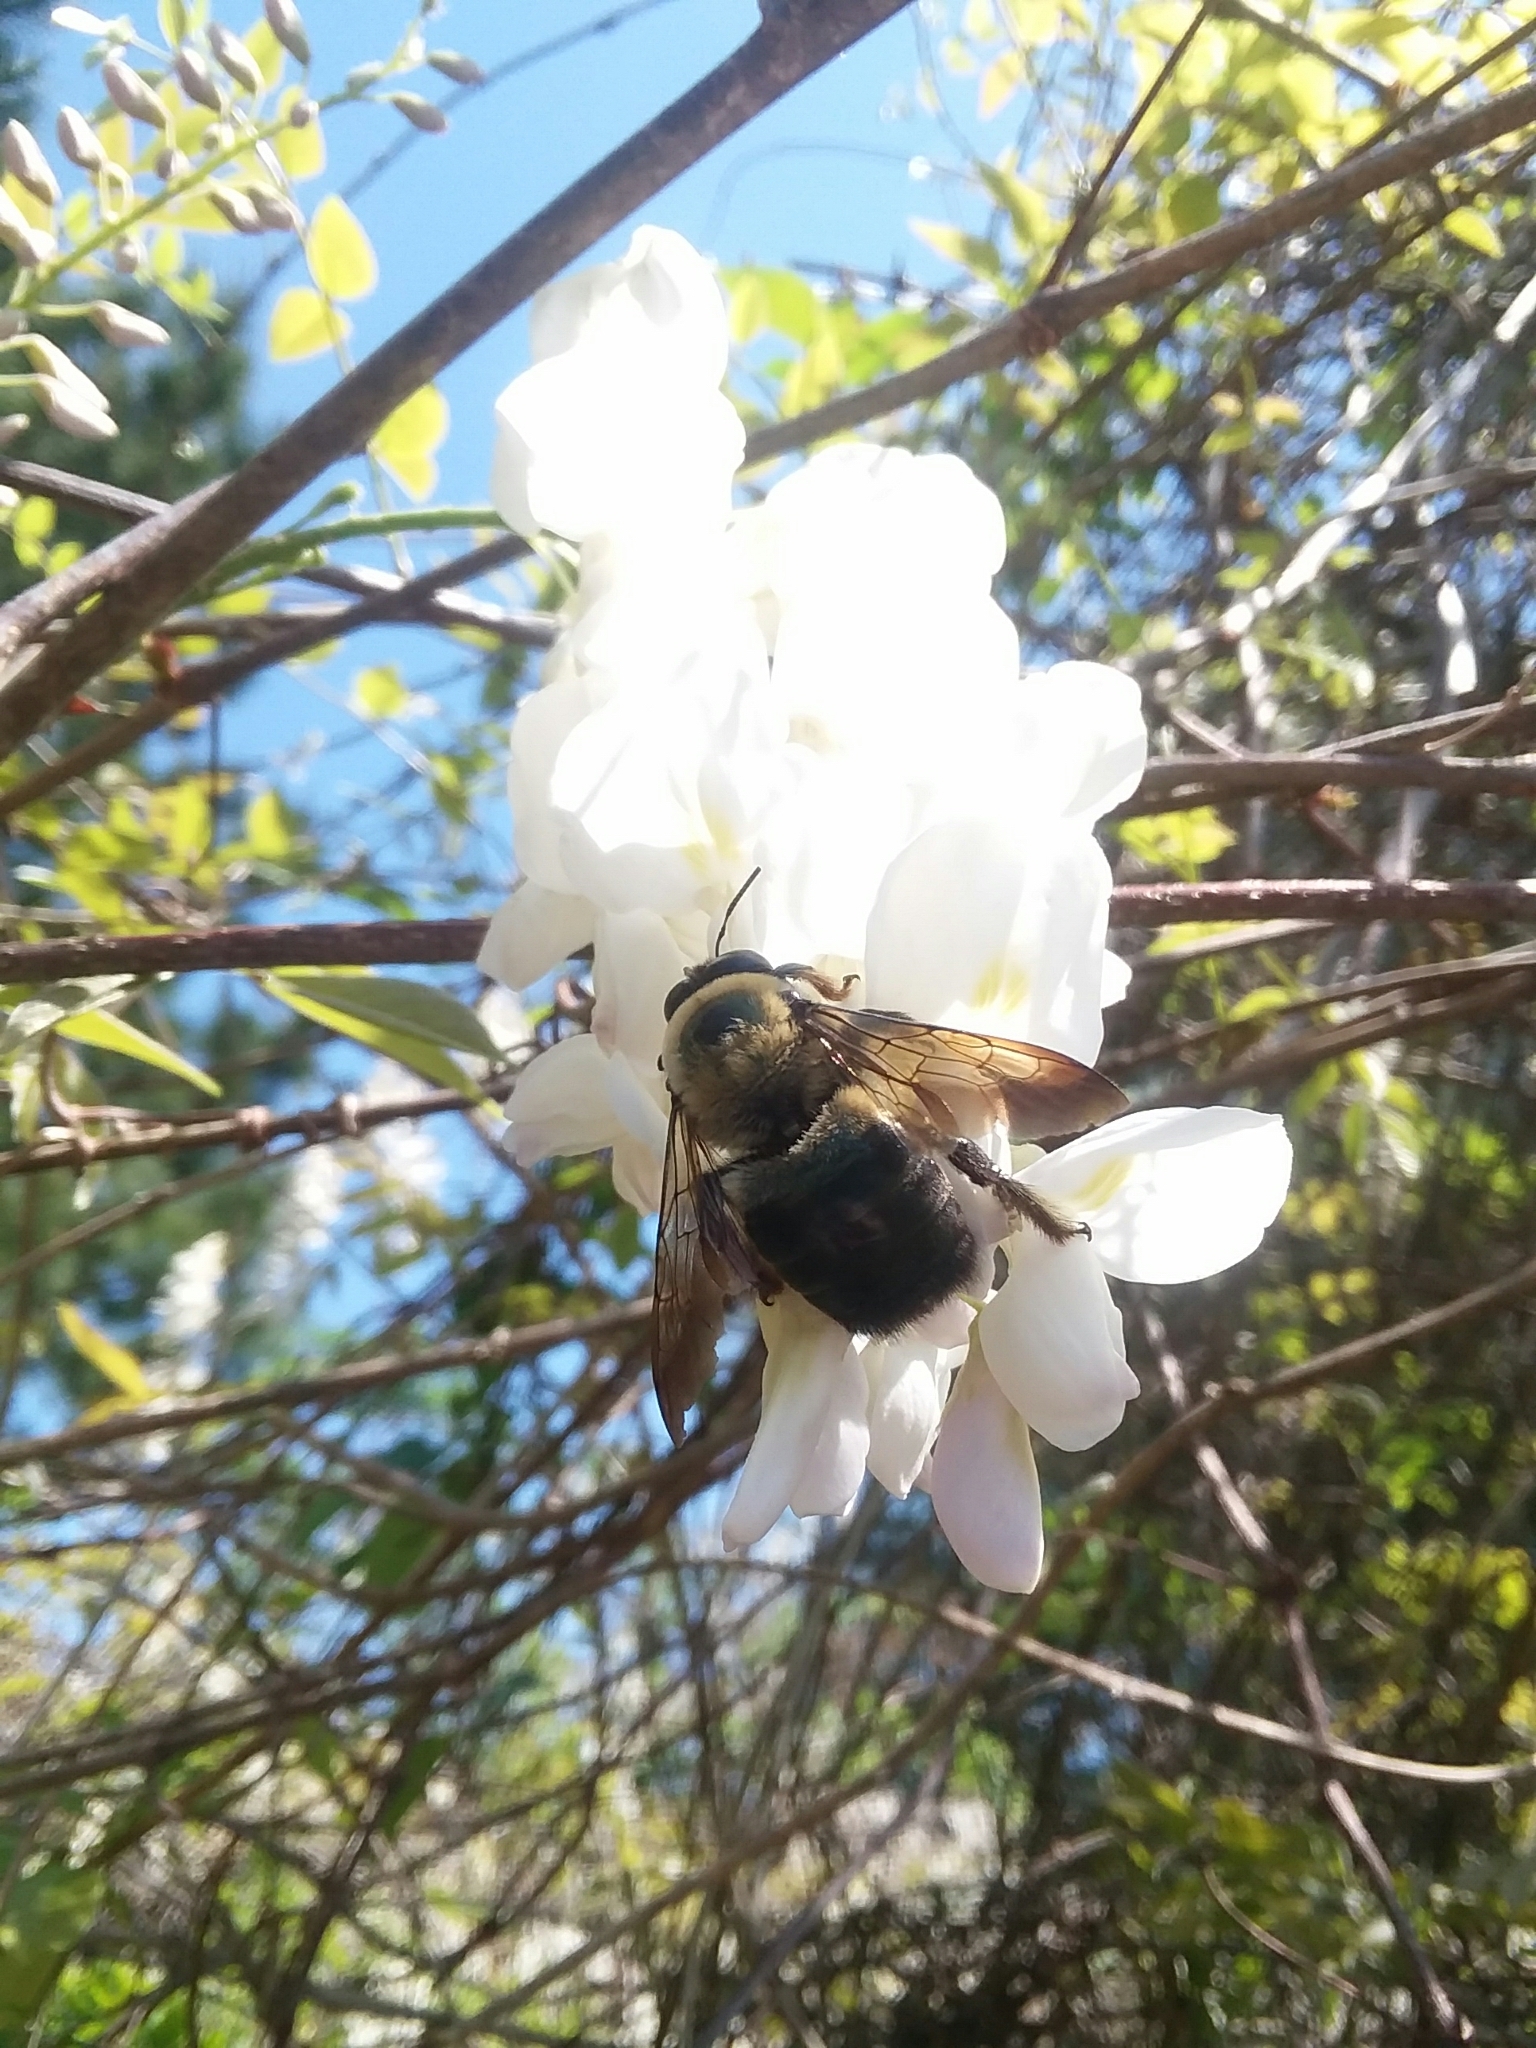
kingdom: Animalia
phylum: Arthropoda
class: Insecta
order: Hymenoptera
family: Apidae
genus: Xylocopa
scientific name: Xylocopa virginica
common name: Carpenter bee
